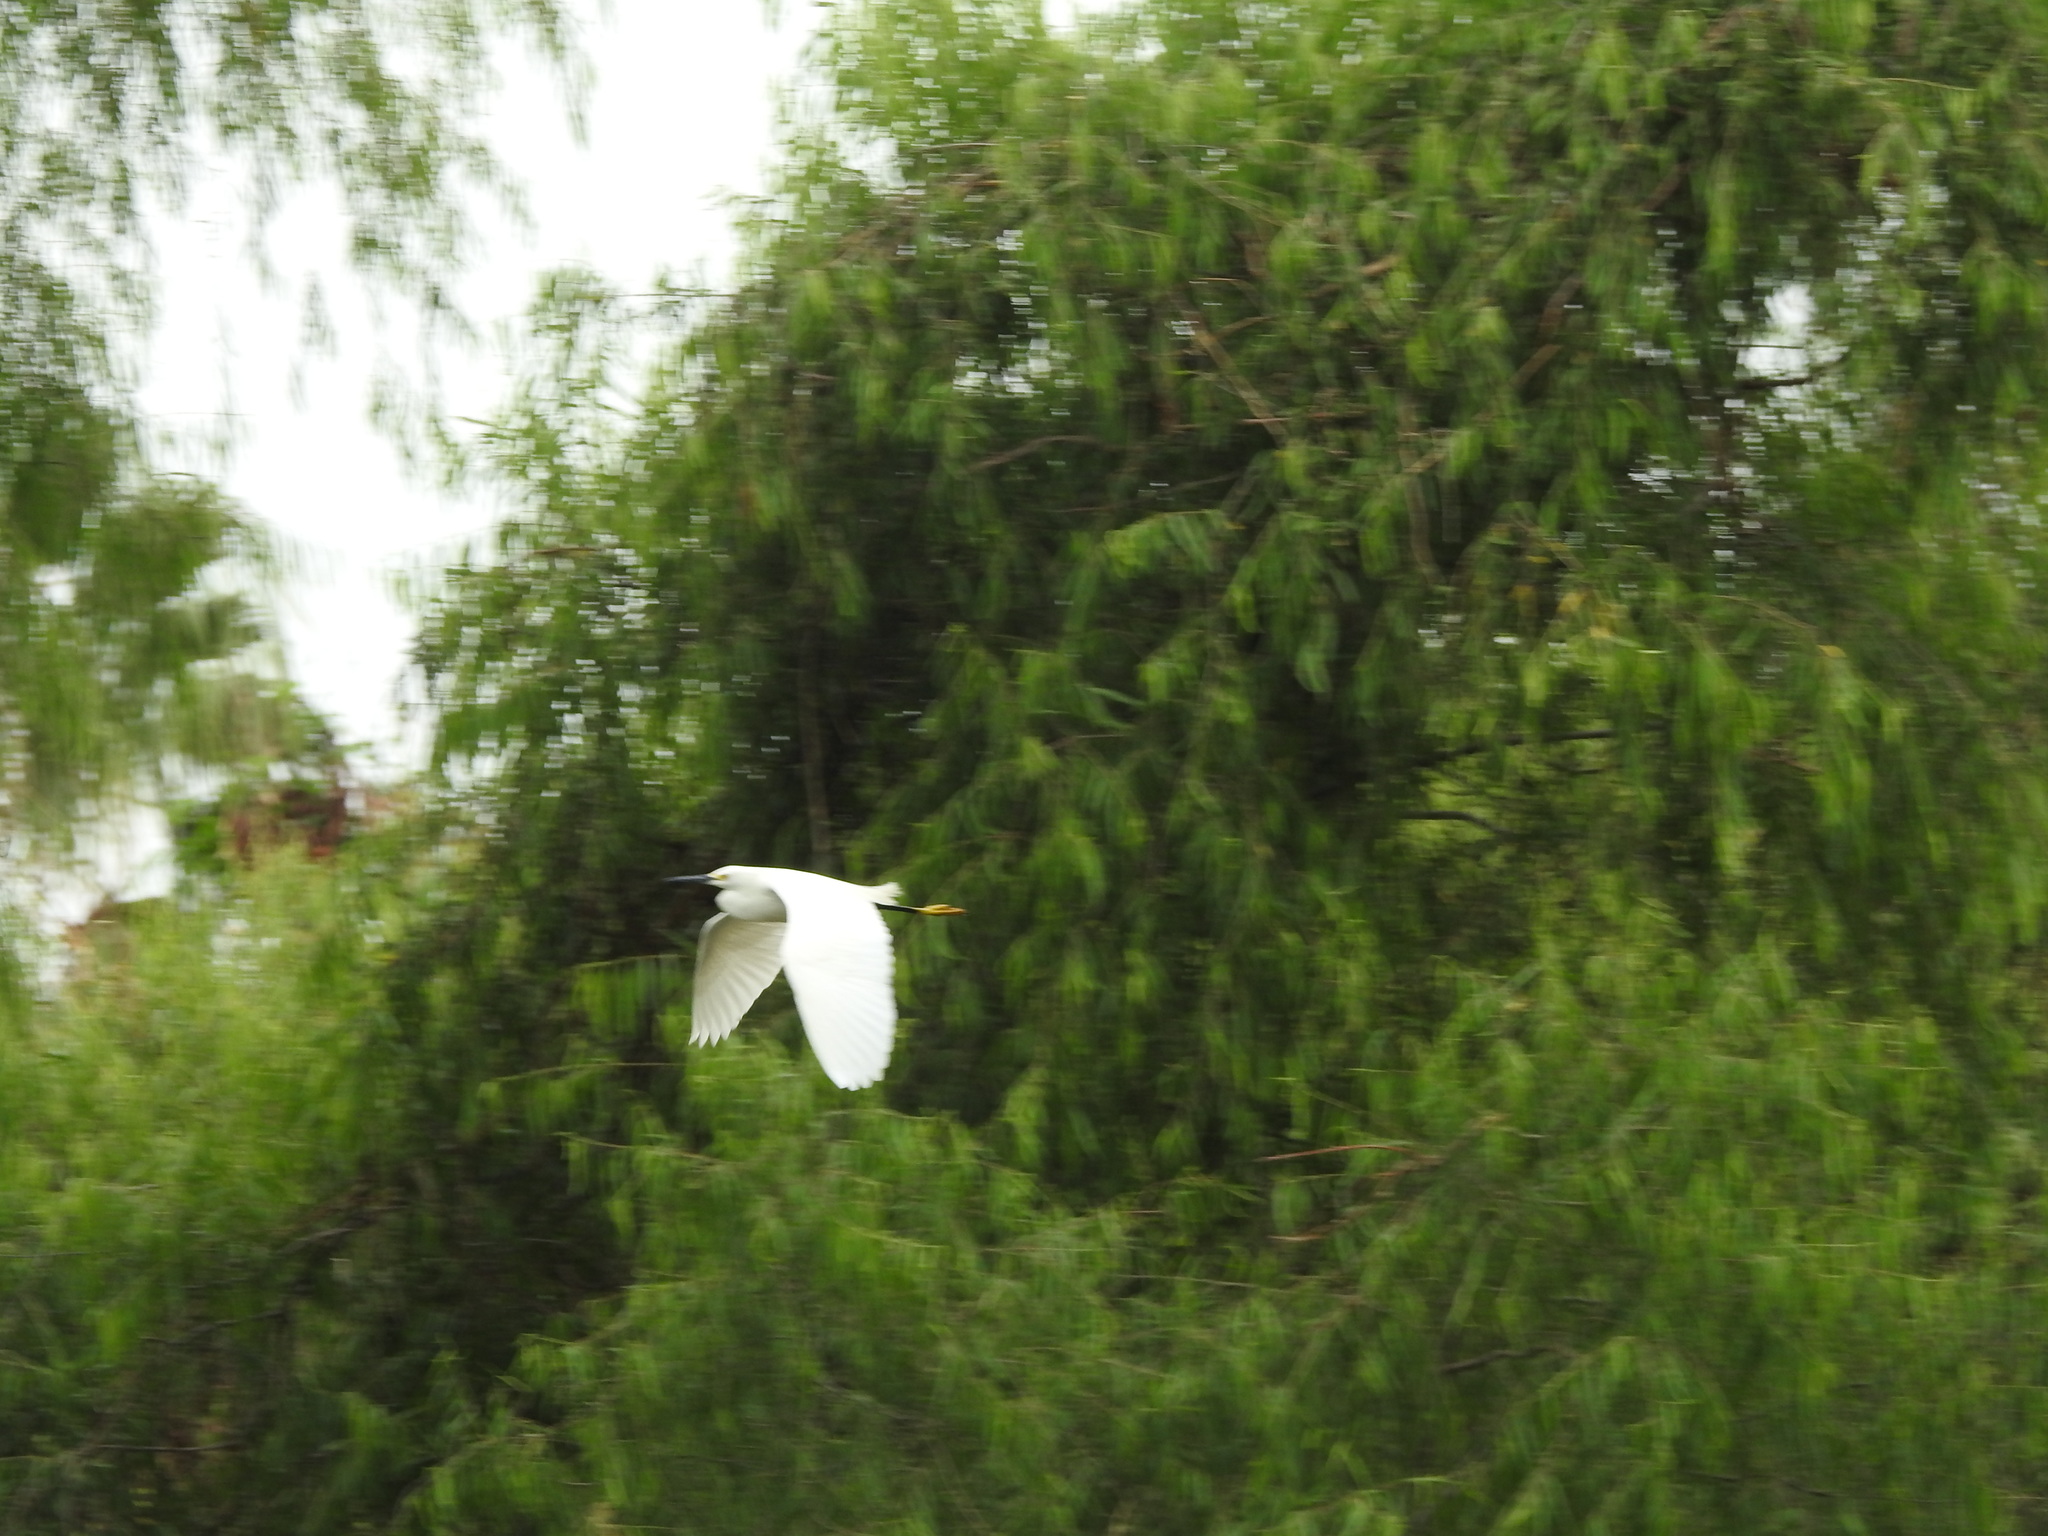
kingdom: Animalia
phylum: Chordata
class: Aves
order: Pelecaniformes
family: Ardeidae
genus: Egretta
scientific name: Egretta thula
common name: Snowy egret
